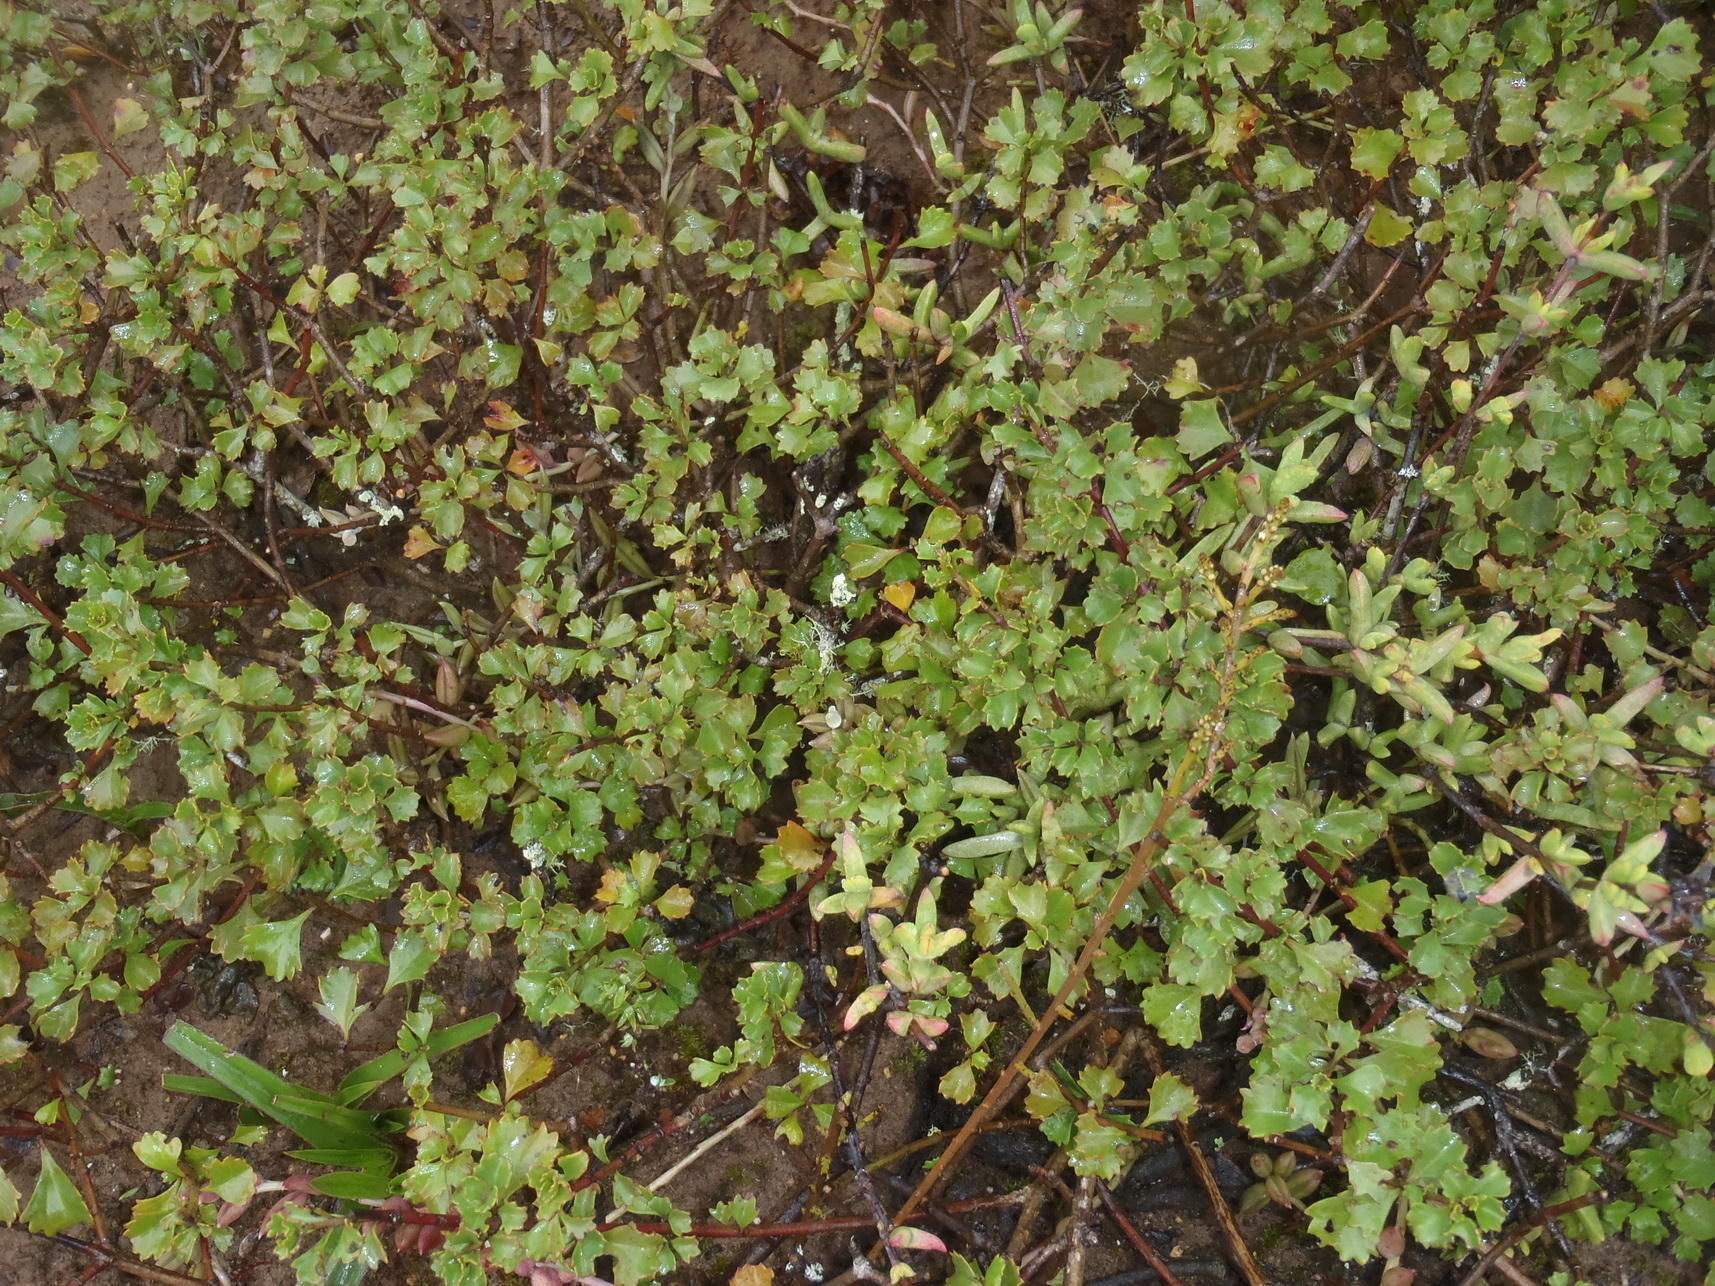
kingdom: Plantae
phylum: Tracheophyta
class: Magnoliopsida
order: Lamiales
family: Verbenaceae
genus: Chascanum
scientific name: Chascanum cuneifolium
